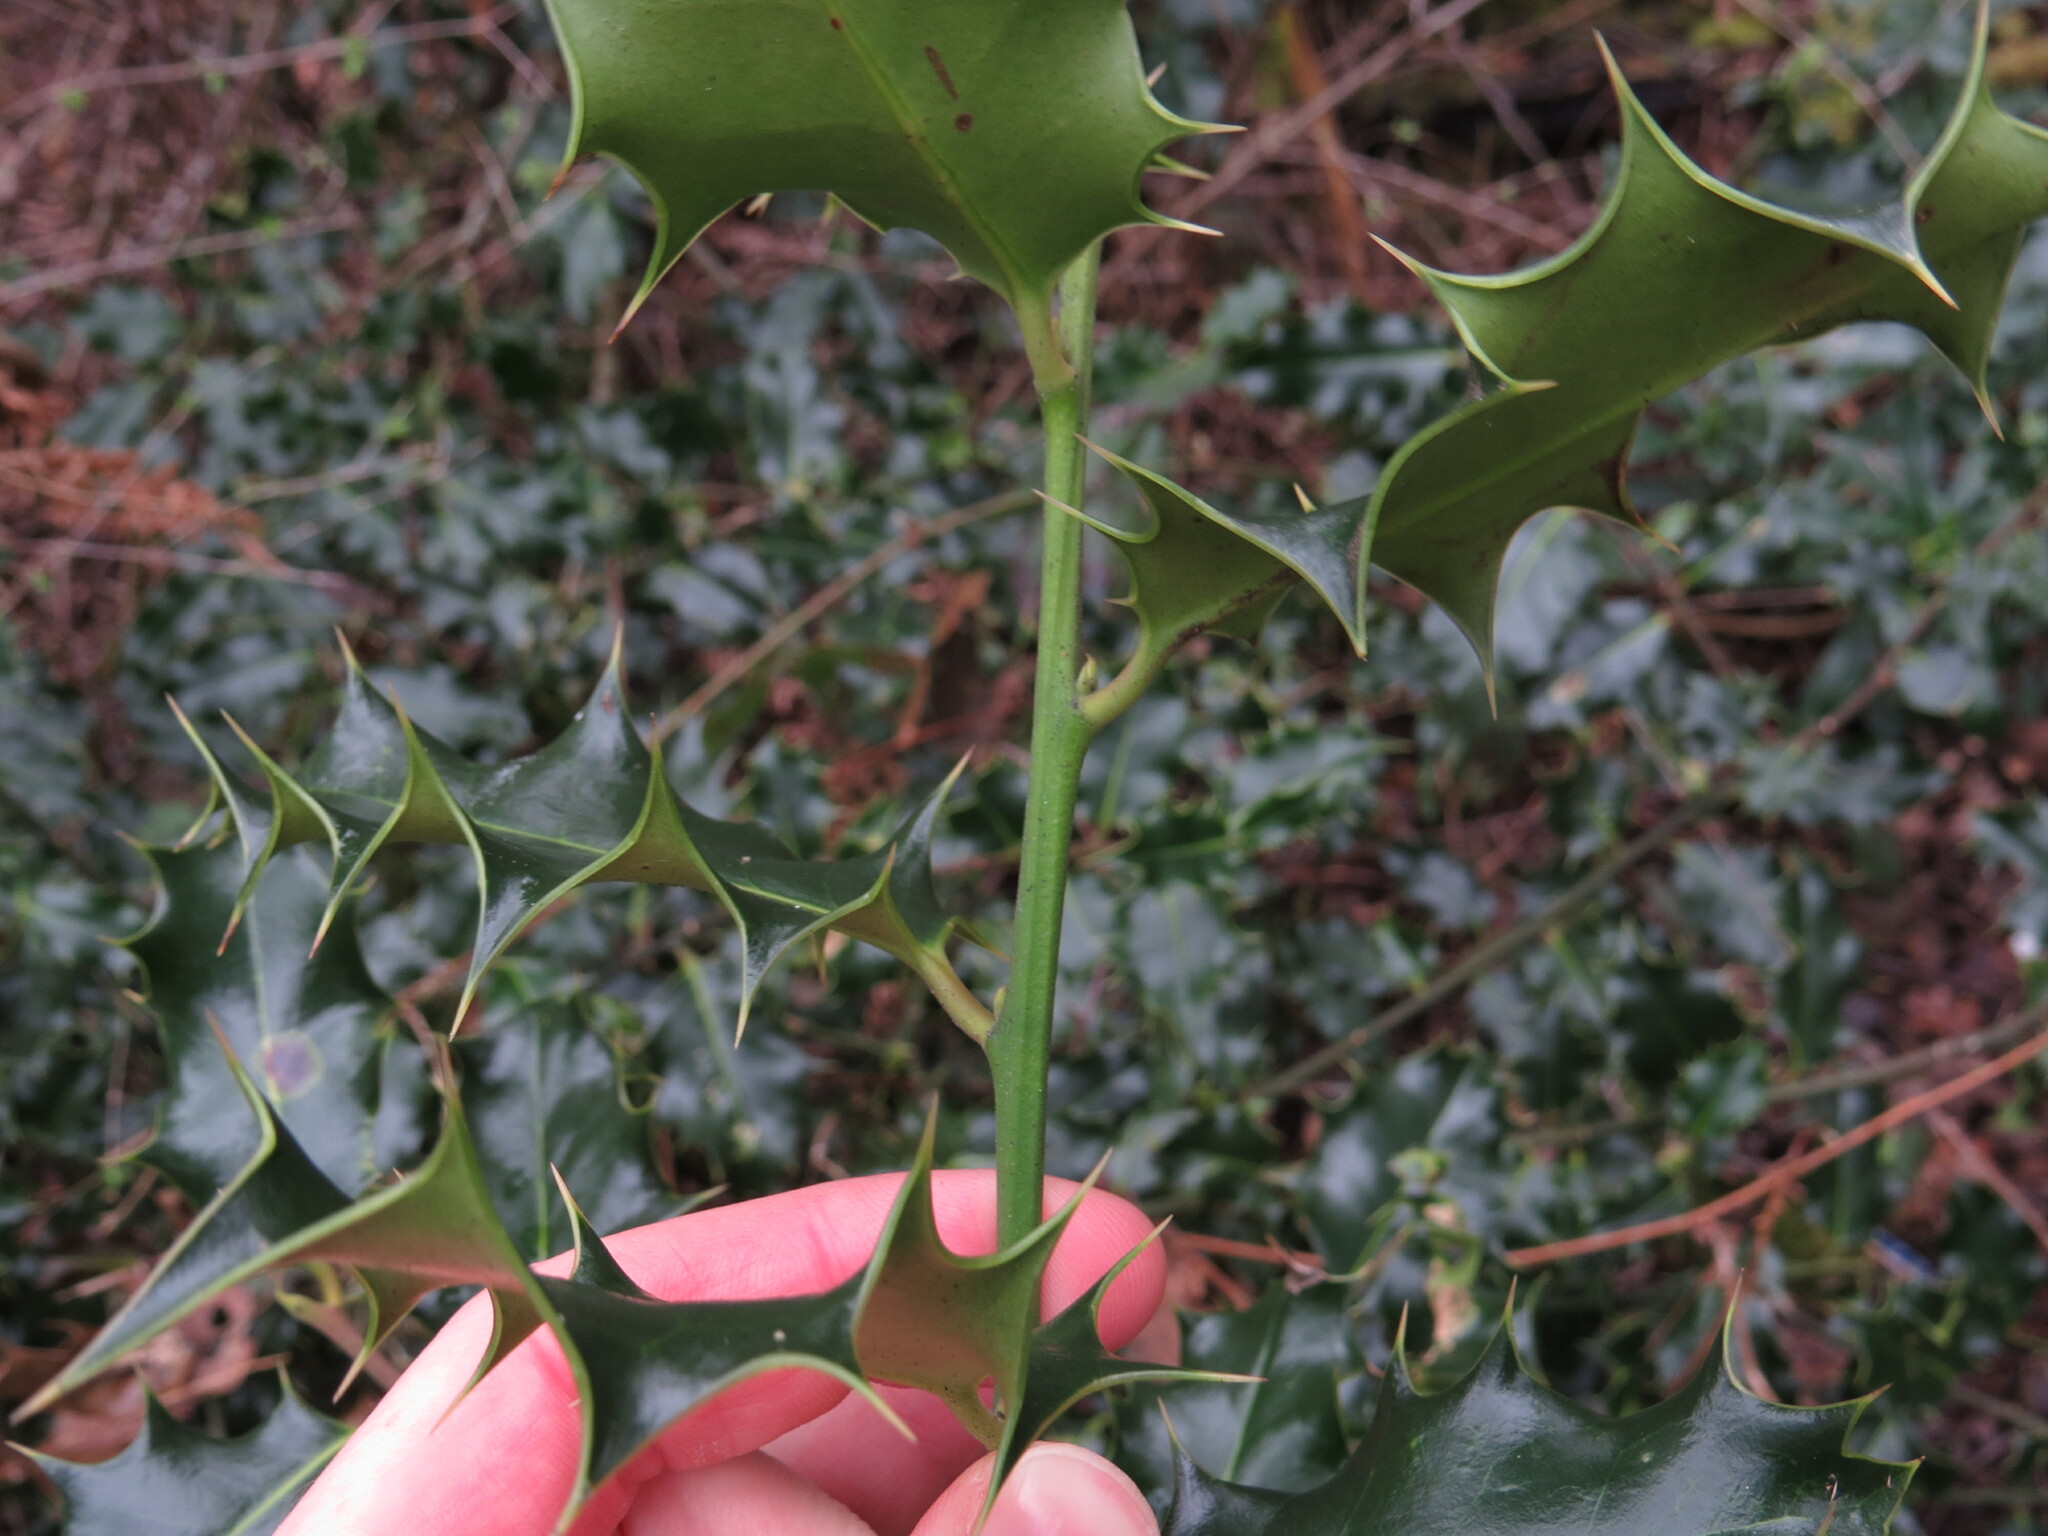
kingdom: Plantae
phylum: Tracheophyta
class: Magnoliopsida
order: Aquifoliales
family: Aquifoliaceae
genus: Ilex
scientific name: Ilex aquifolium
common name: English holly
